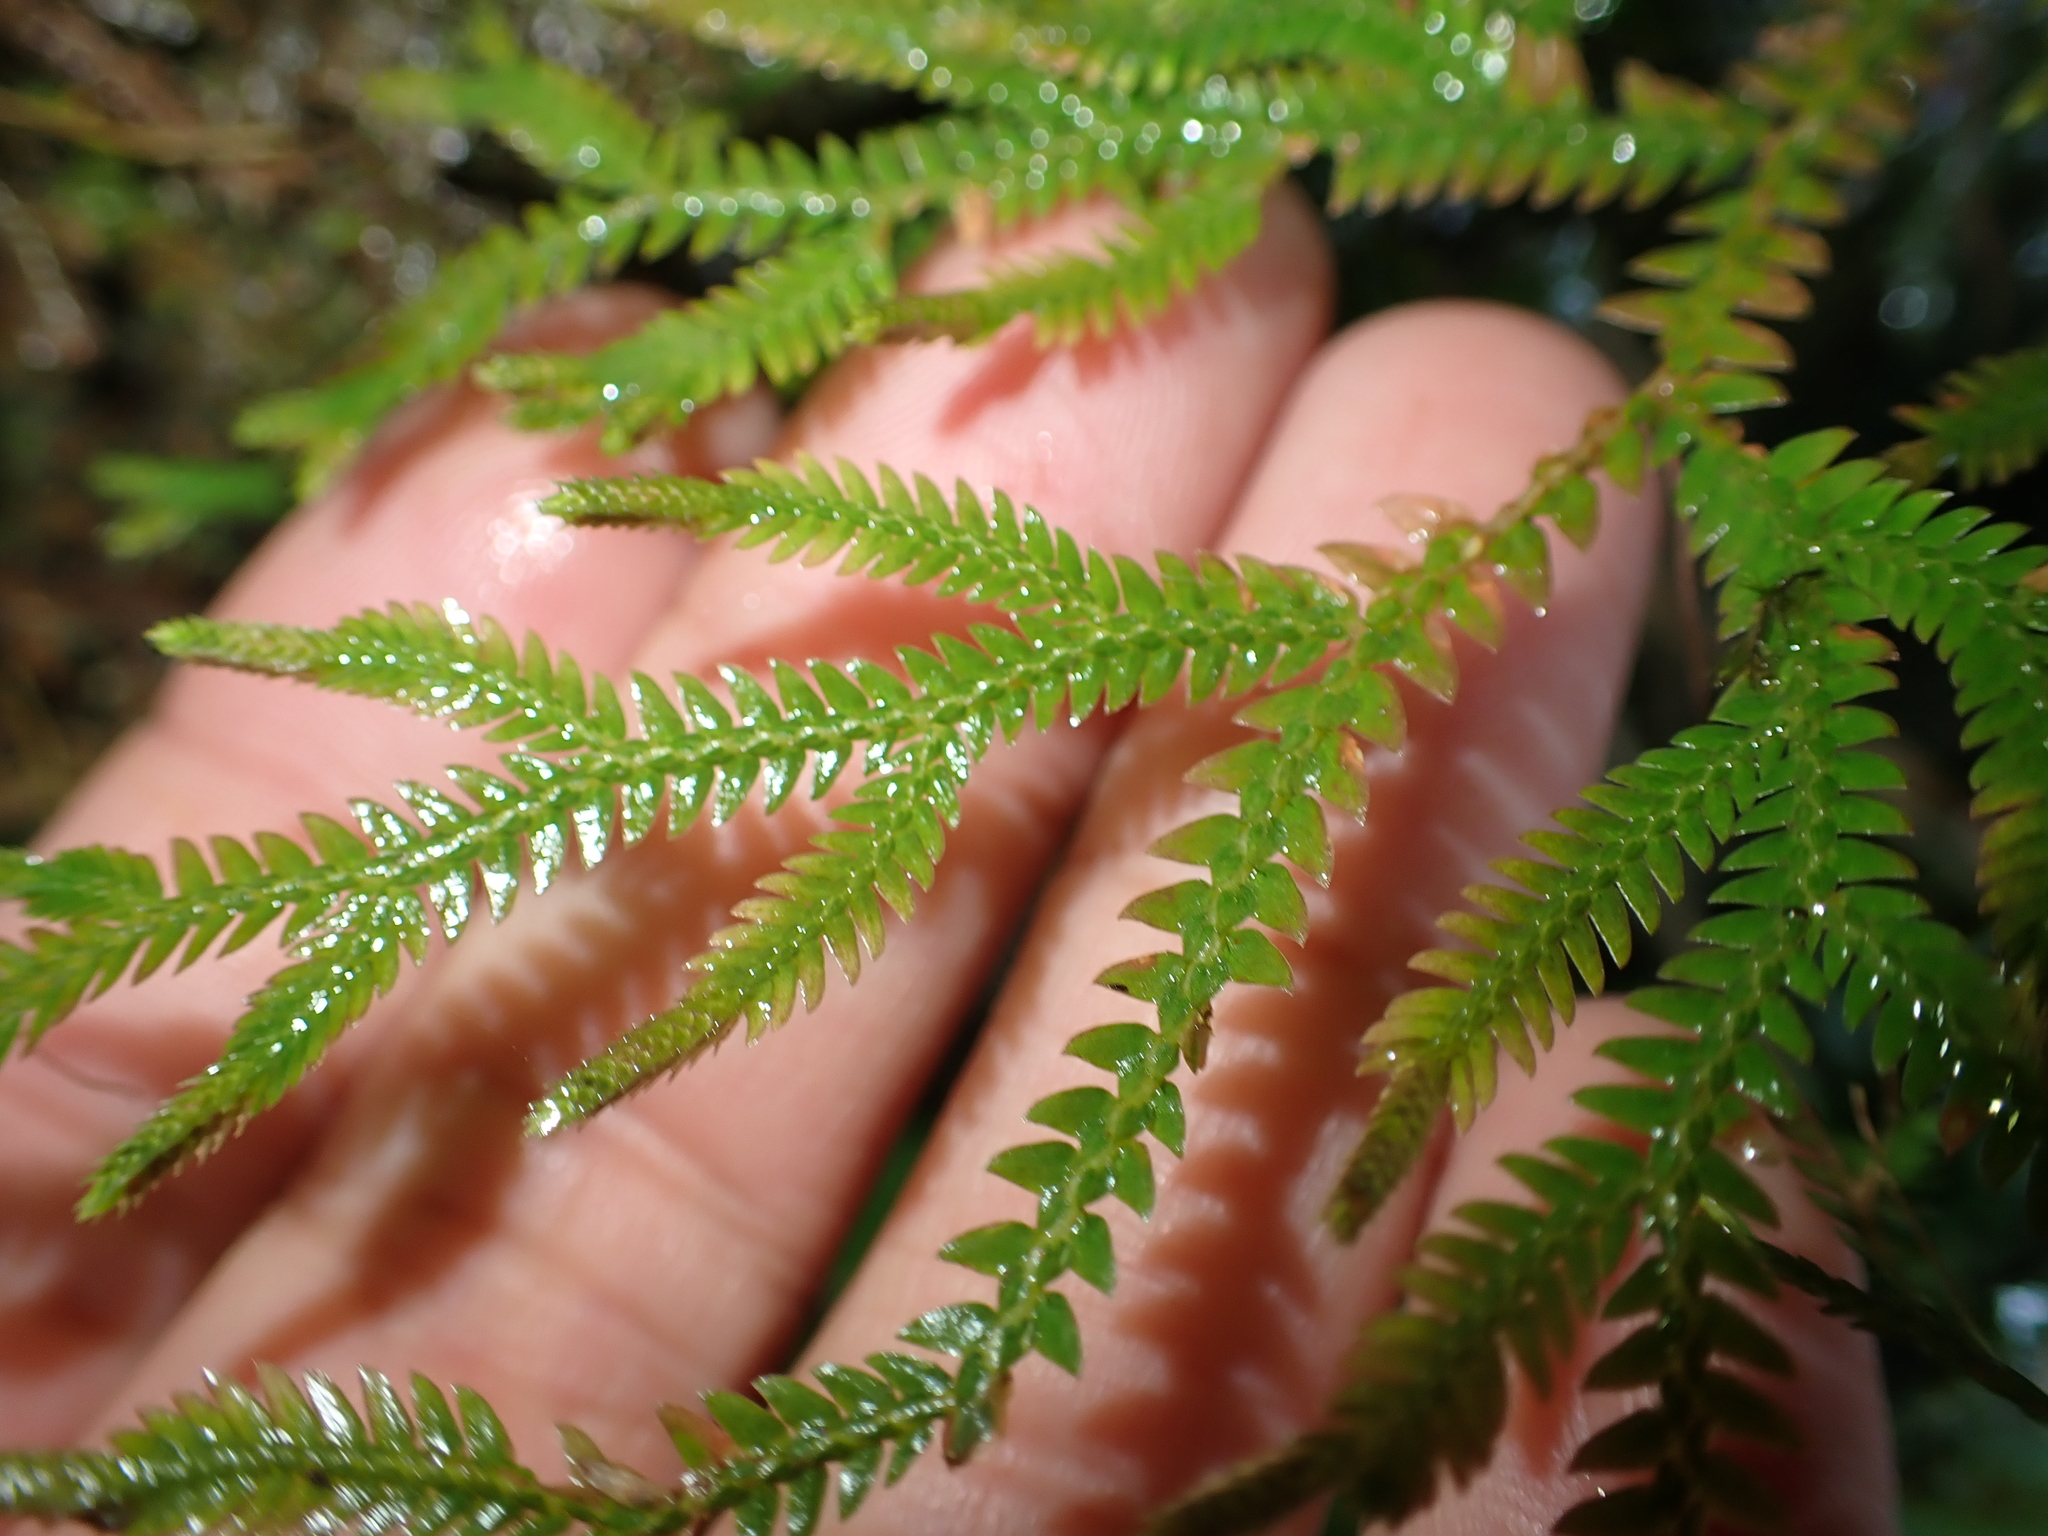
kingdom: Plantae
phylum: Tracheophyta
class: Lycopodiopsida
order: Selaginellales
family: Selaginellaceae
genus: Selaginella
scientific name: Selaginella repanda
